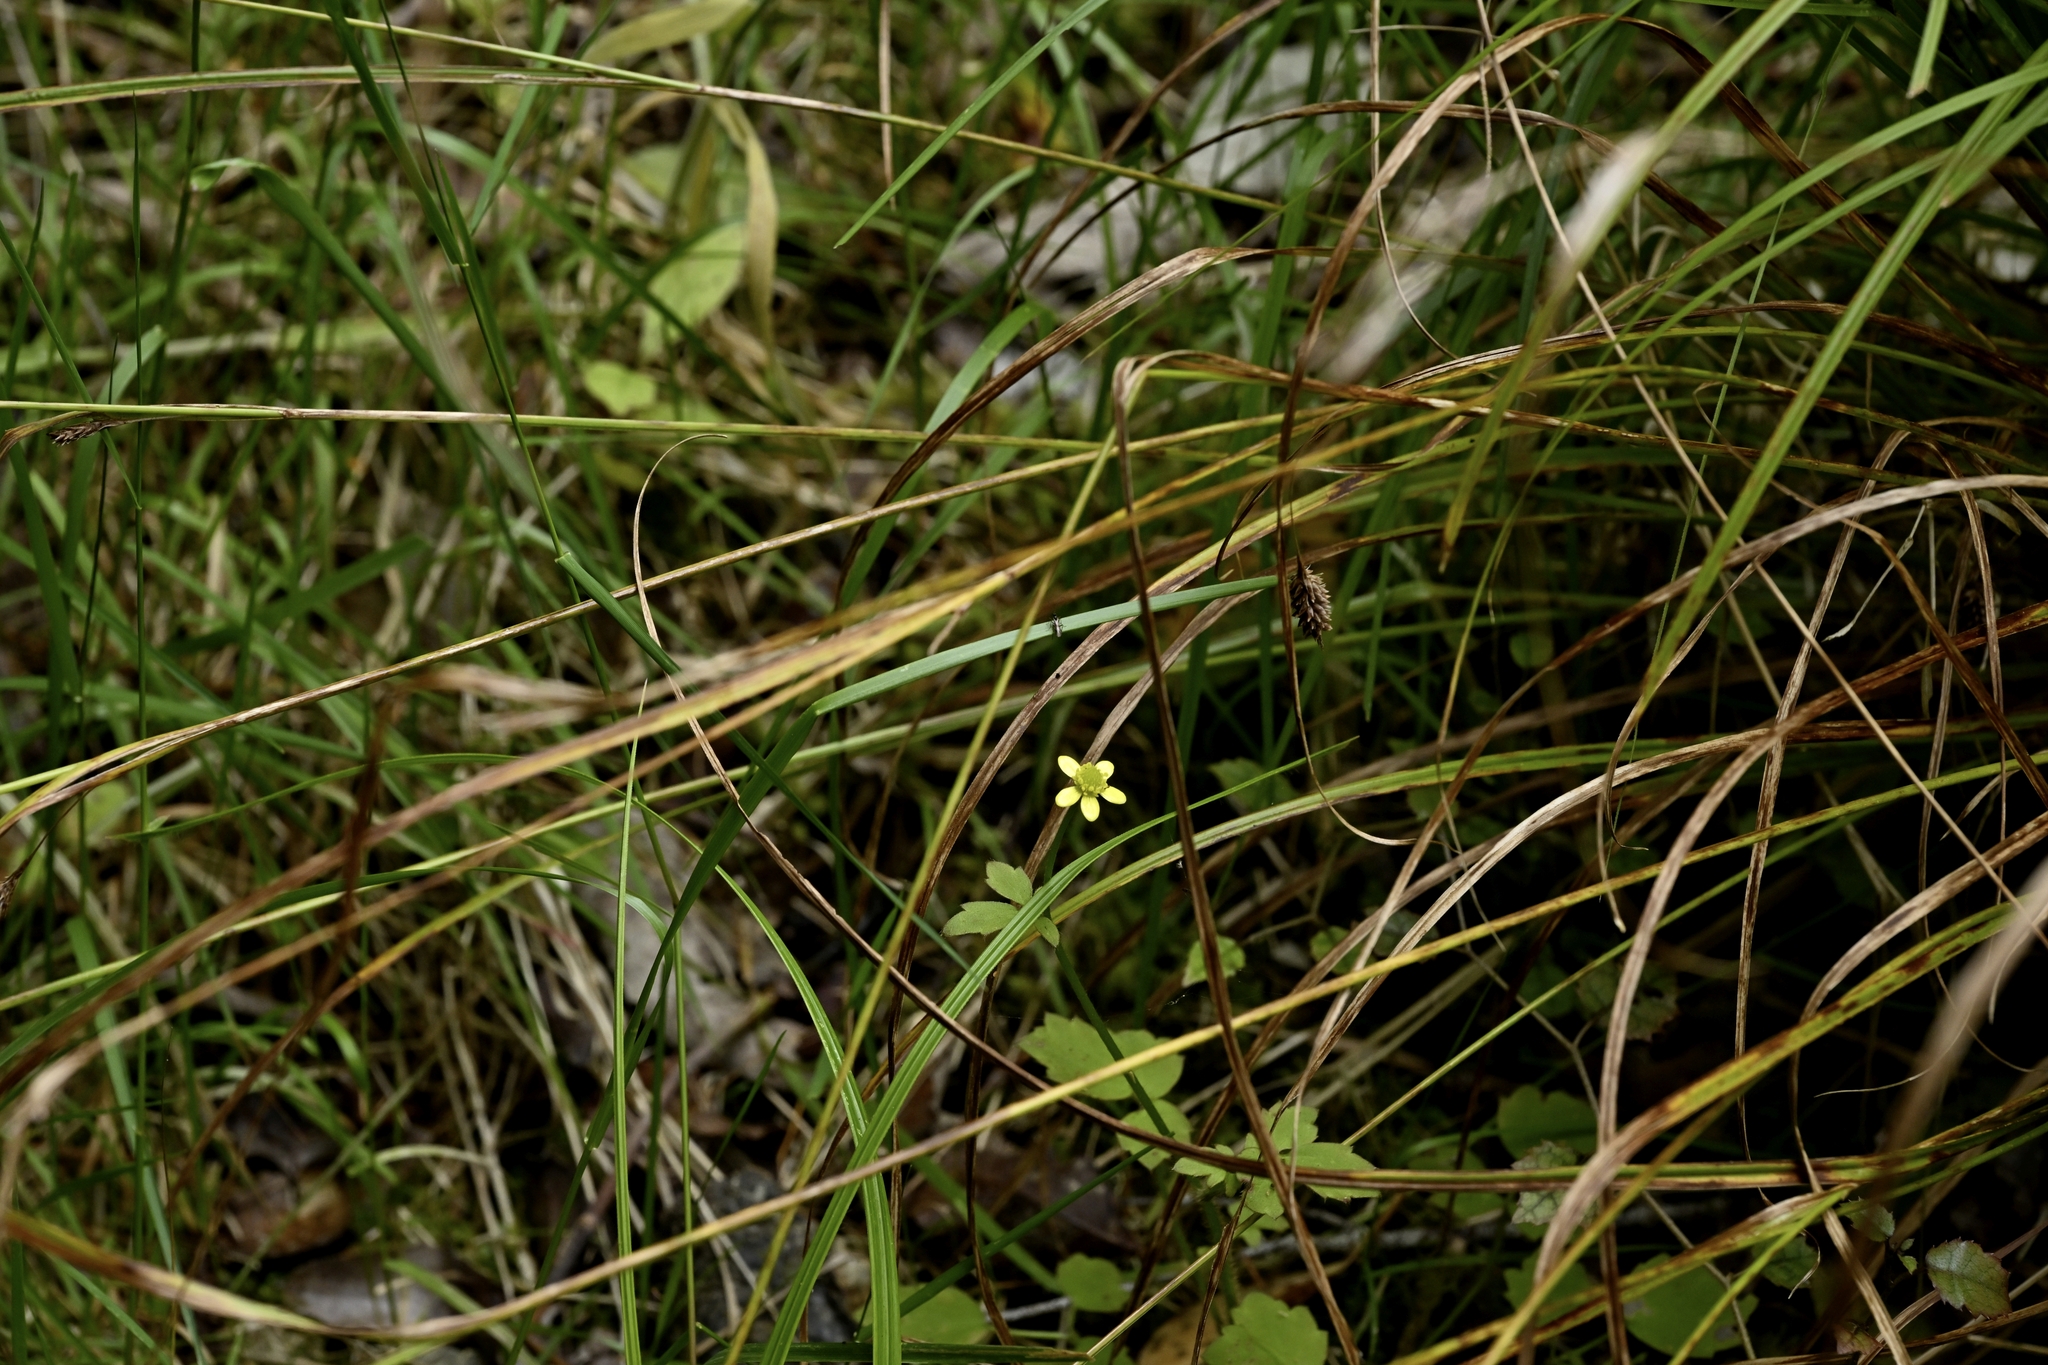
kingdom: Plantae
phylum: Tracheophyta
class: Magnoliopsida
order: Ranunculales
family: Ranunculaceae
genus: Ranunculus
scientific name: Ranunculus reflexus
